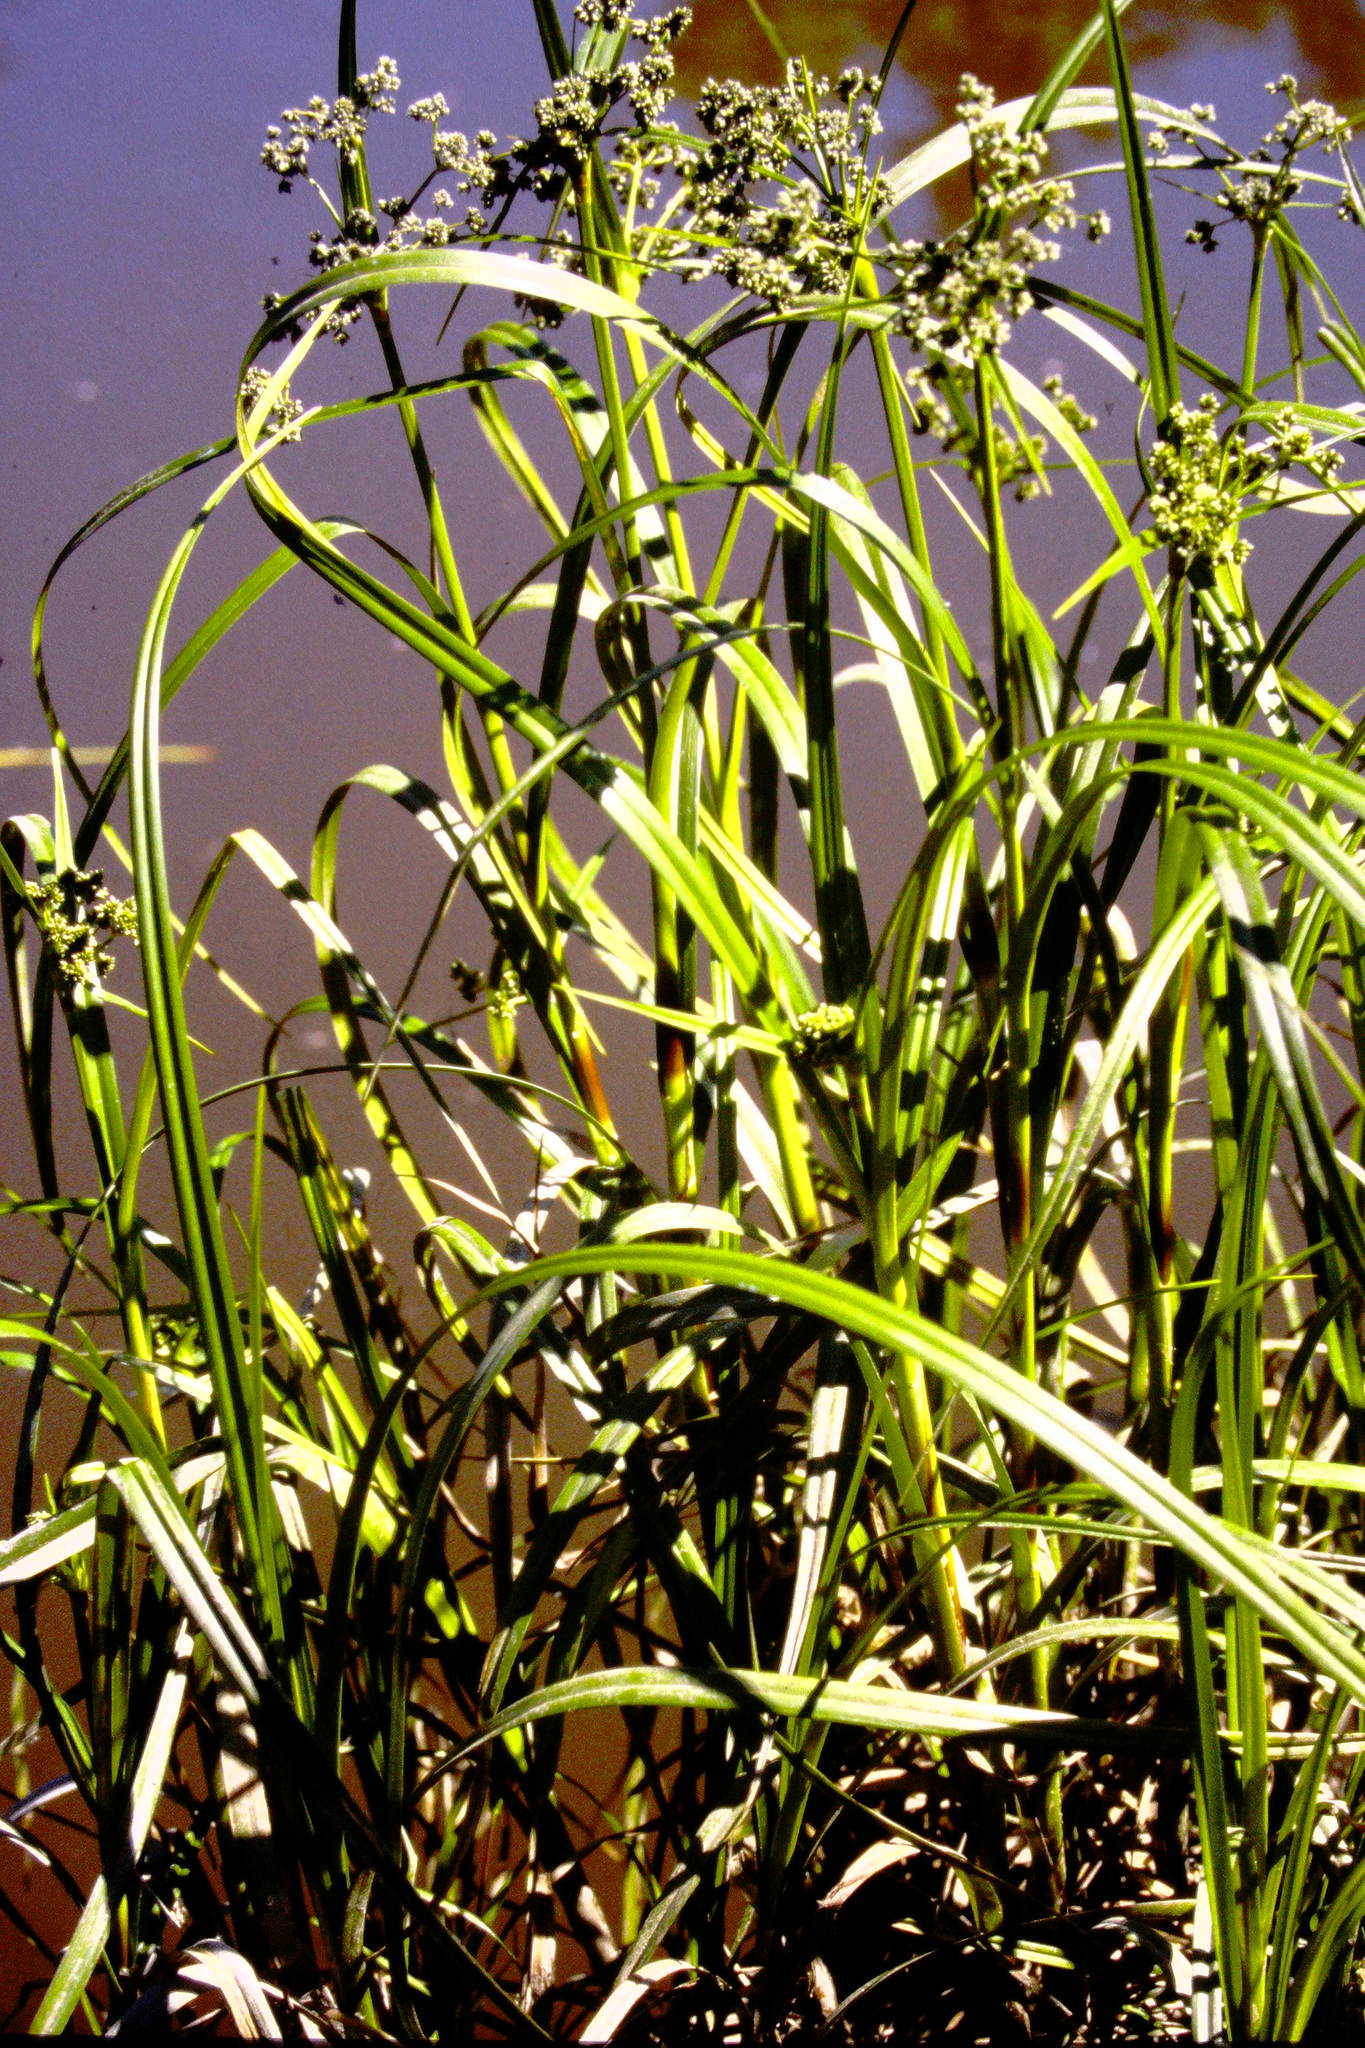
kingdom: Plantae
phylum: Tracheophyta
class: Liliopsida
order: Poales
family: Cyperaceae
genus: Scirpus
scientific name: Scirpus microcarpus
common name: Panicled bulrush
